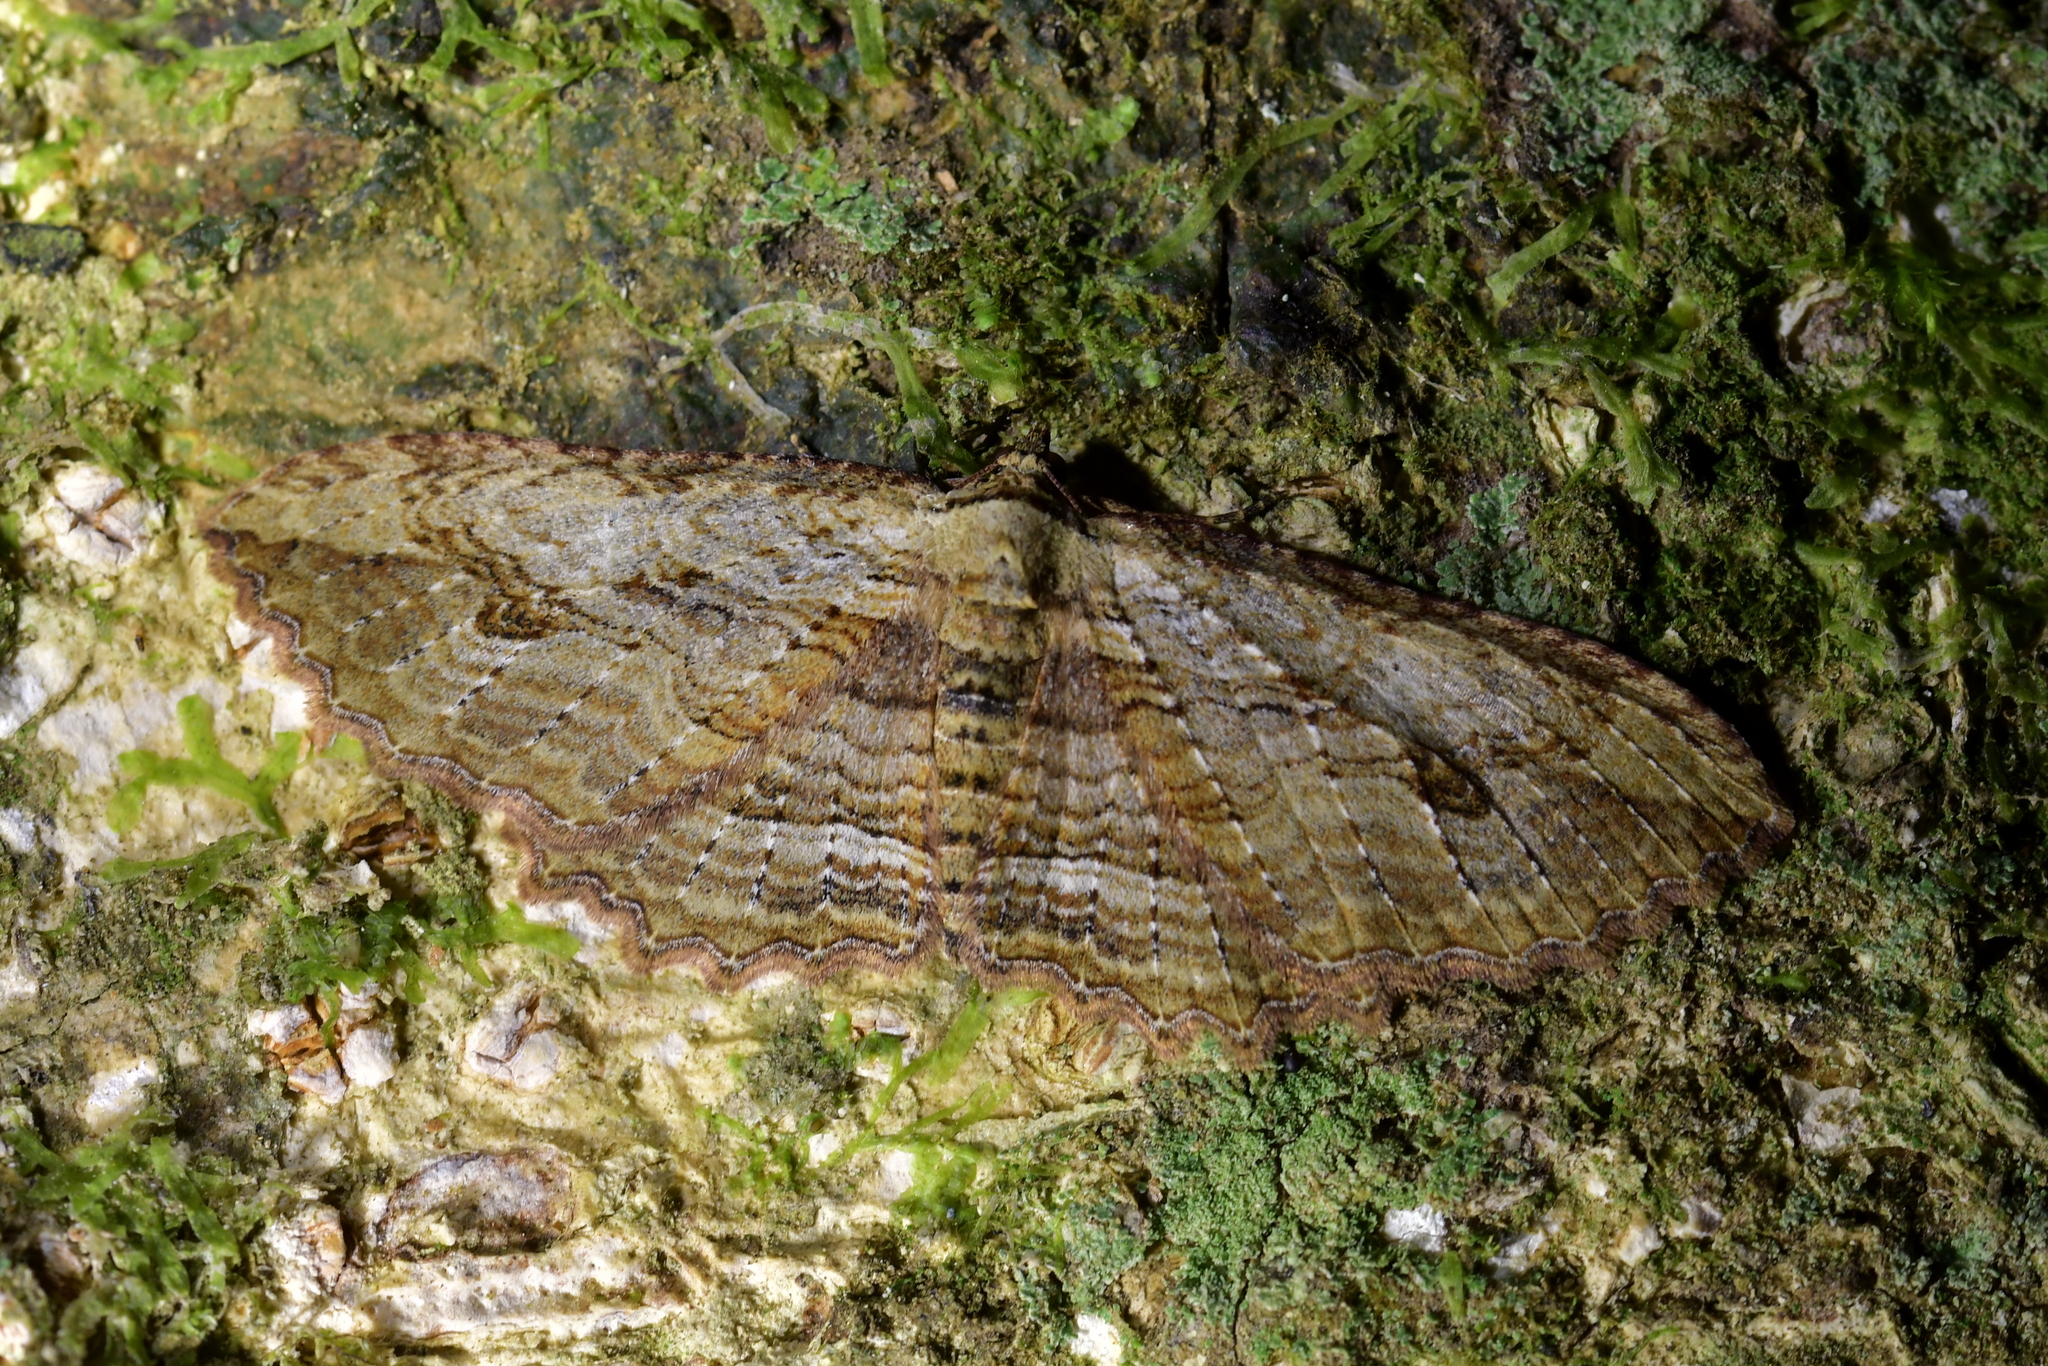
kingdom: Animalia
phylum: Arthropoda
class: Insecta
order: Lepidoptera
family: Geometridae
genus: Austrocidaria
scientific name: Austrocidaria bipartita
